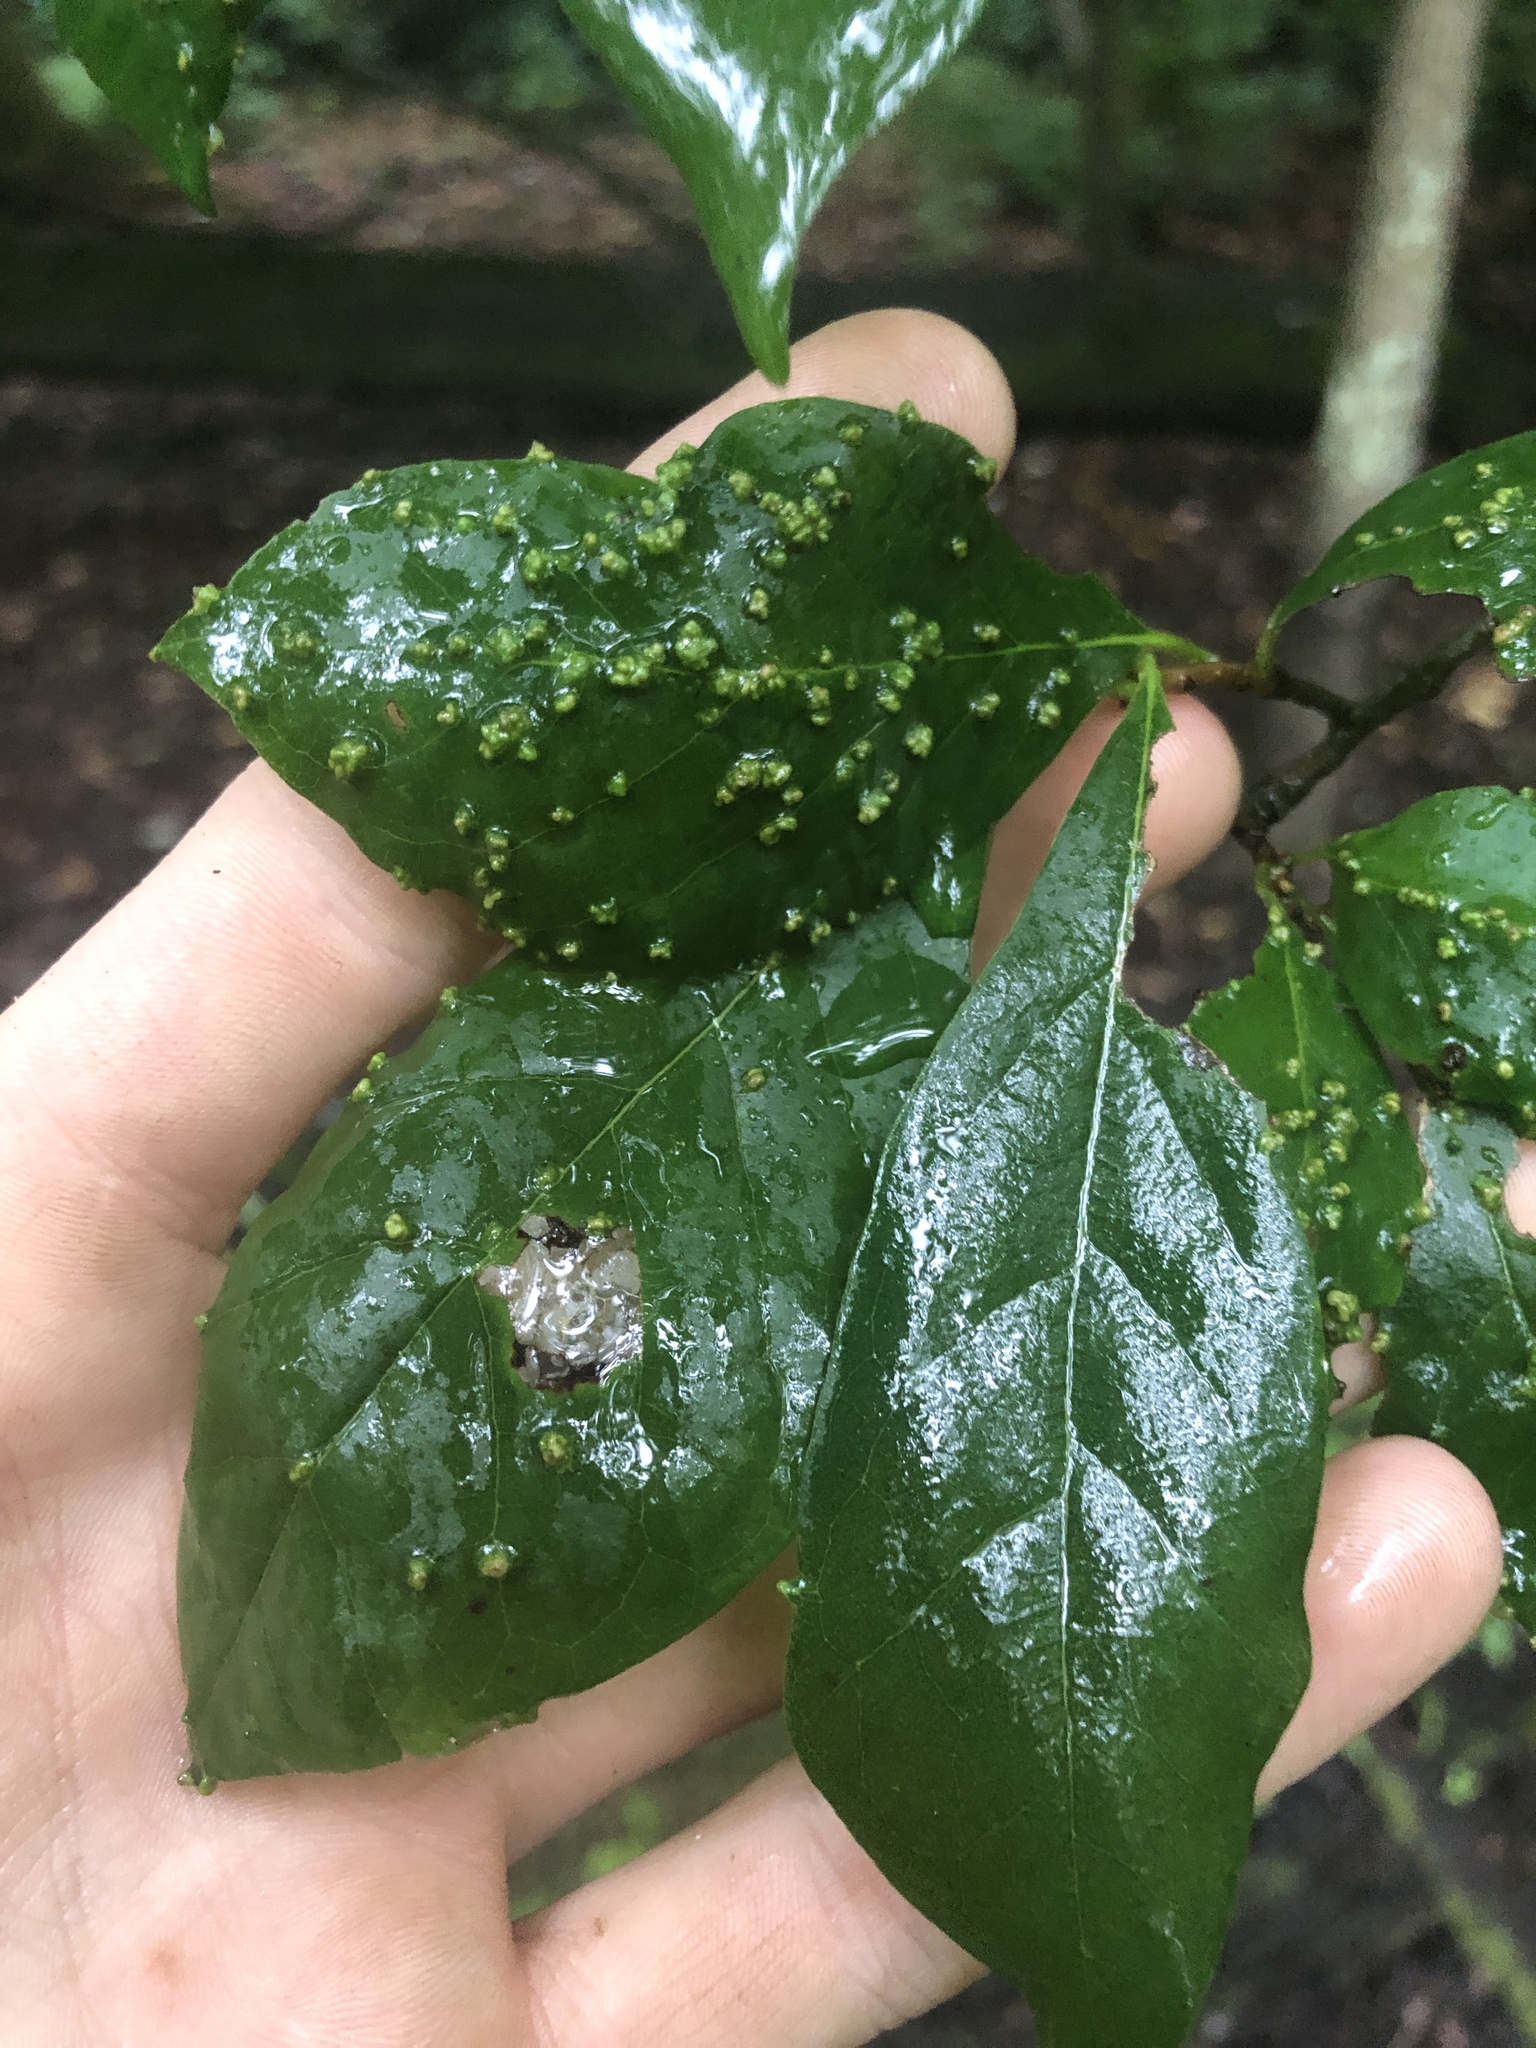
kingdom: Animalia
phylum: Arthropoda
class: Arachnida
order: Trombidiformes
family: Eriophyidae
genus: Aceria
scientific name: Aceria
